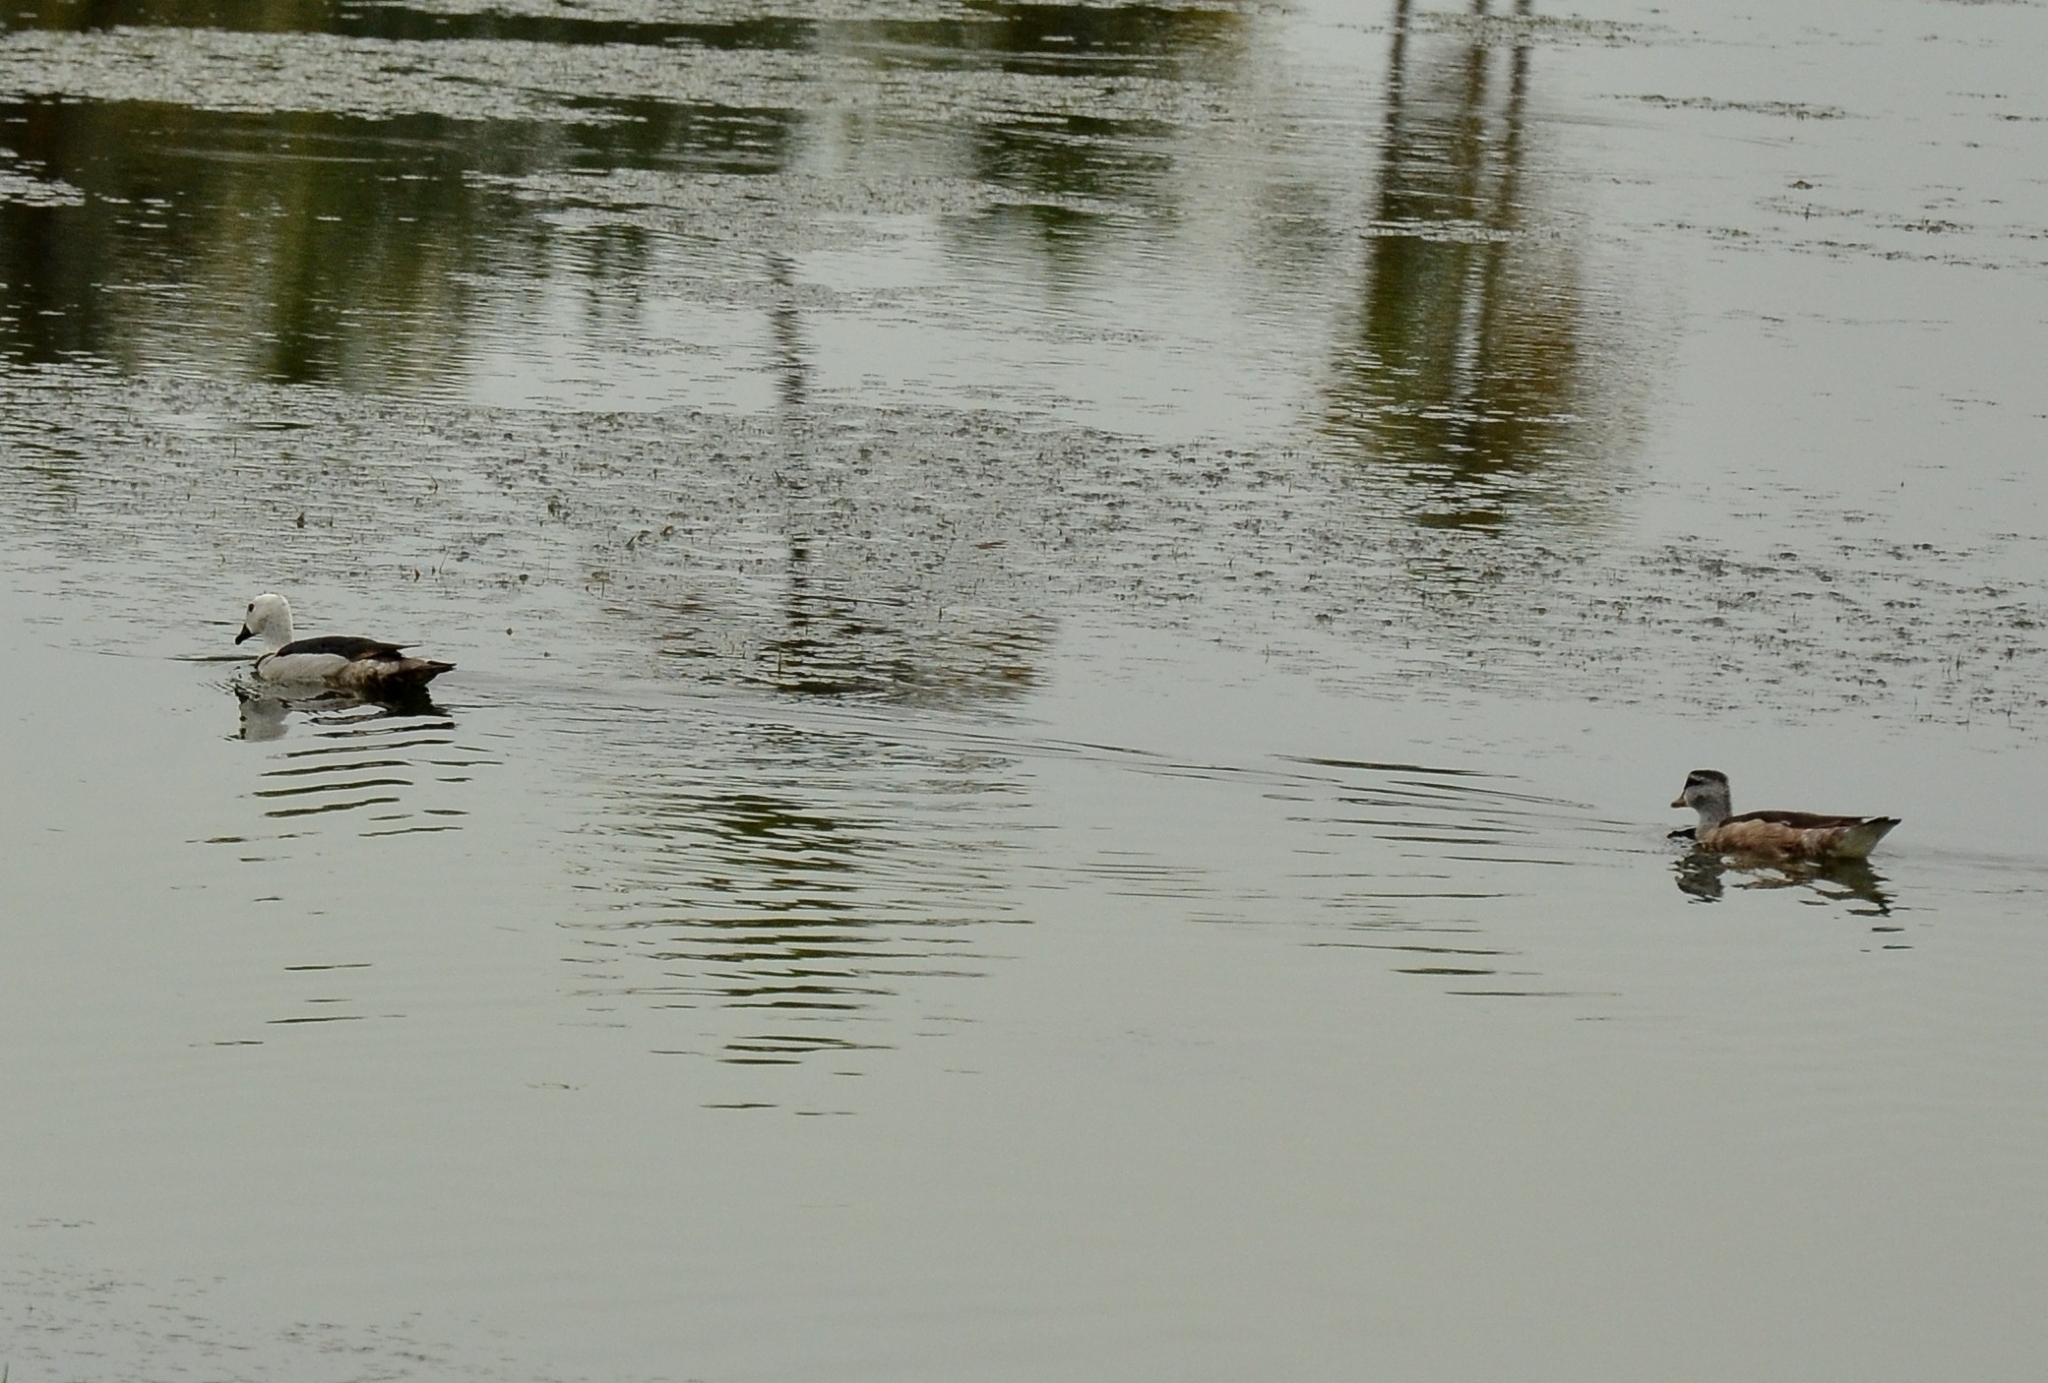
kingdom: Animalia
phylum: Chordata
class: Aves
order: Anseriformes
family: Anatidae
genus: Nettapus
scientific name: Nettapus coromandelianus
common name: Cotton pygmy-goose
